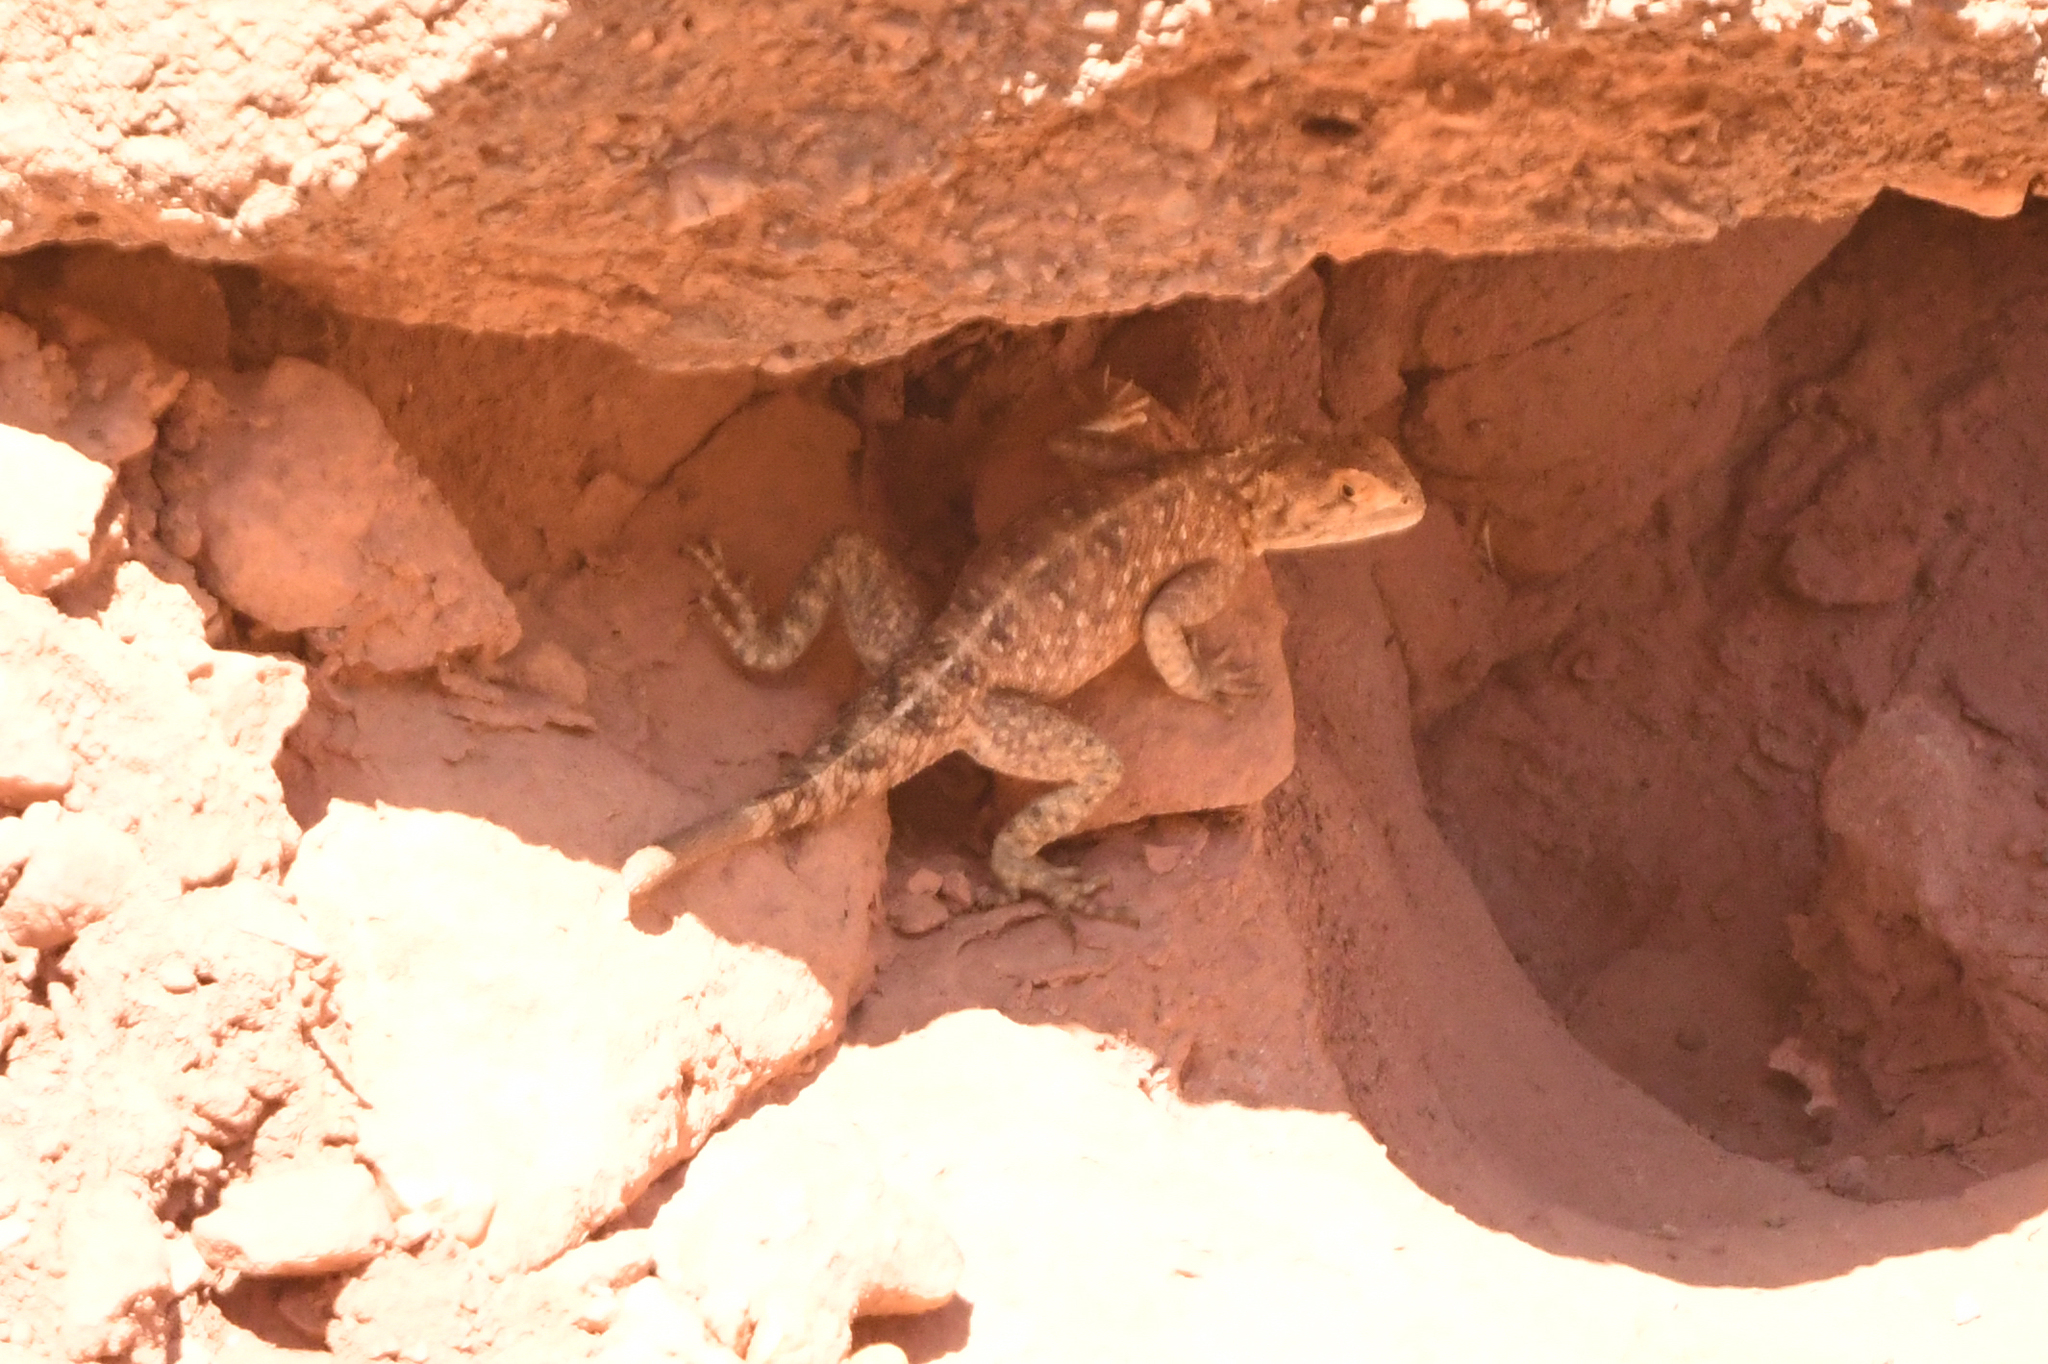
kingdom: Animalia
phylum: Chordata
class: Squamata
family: Agamidae
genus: Agama
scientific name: Agama impalearis
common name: Bibron's agama
